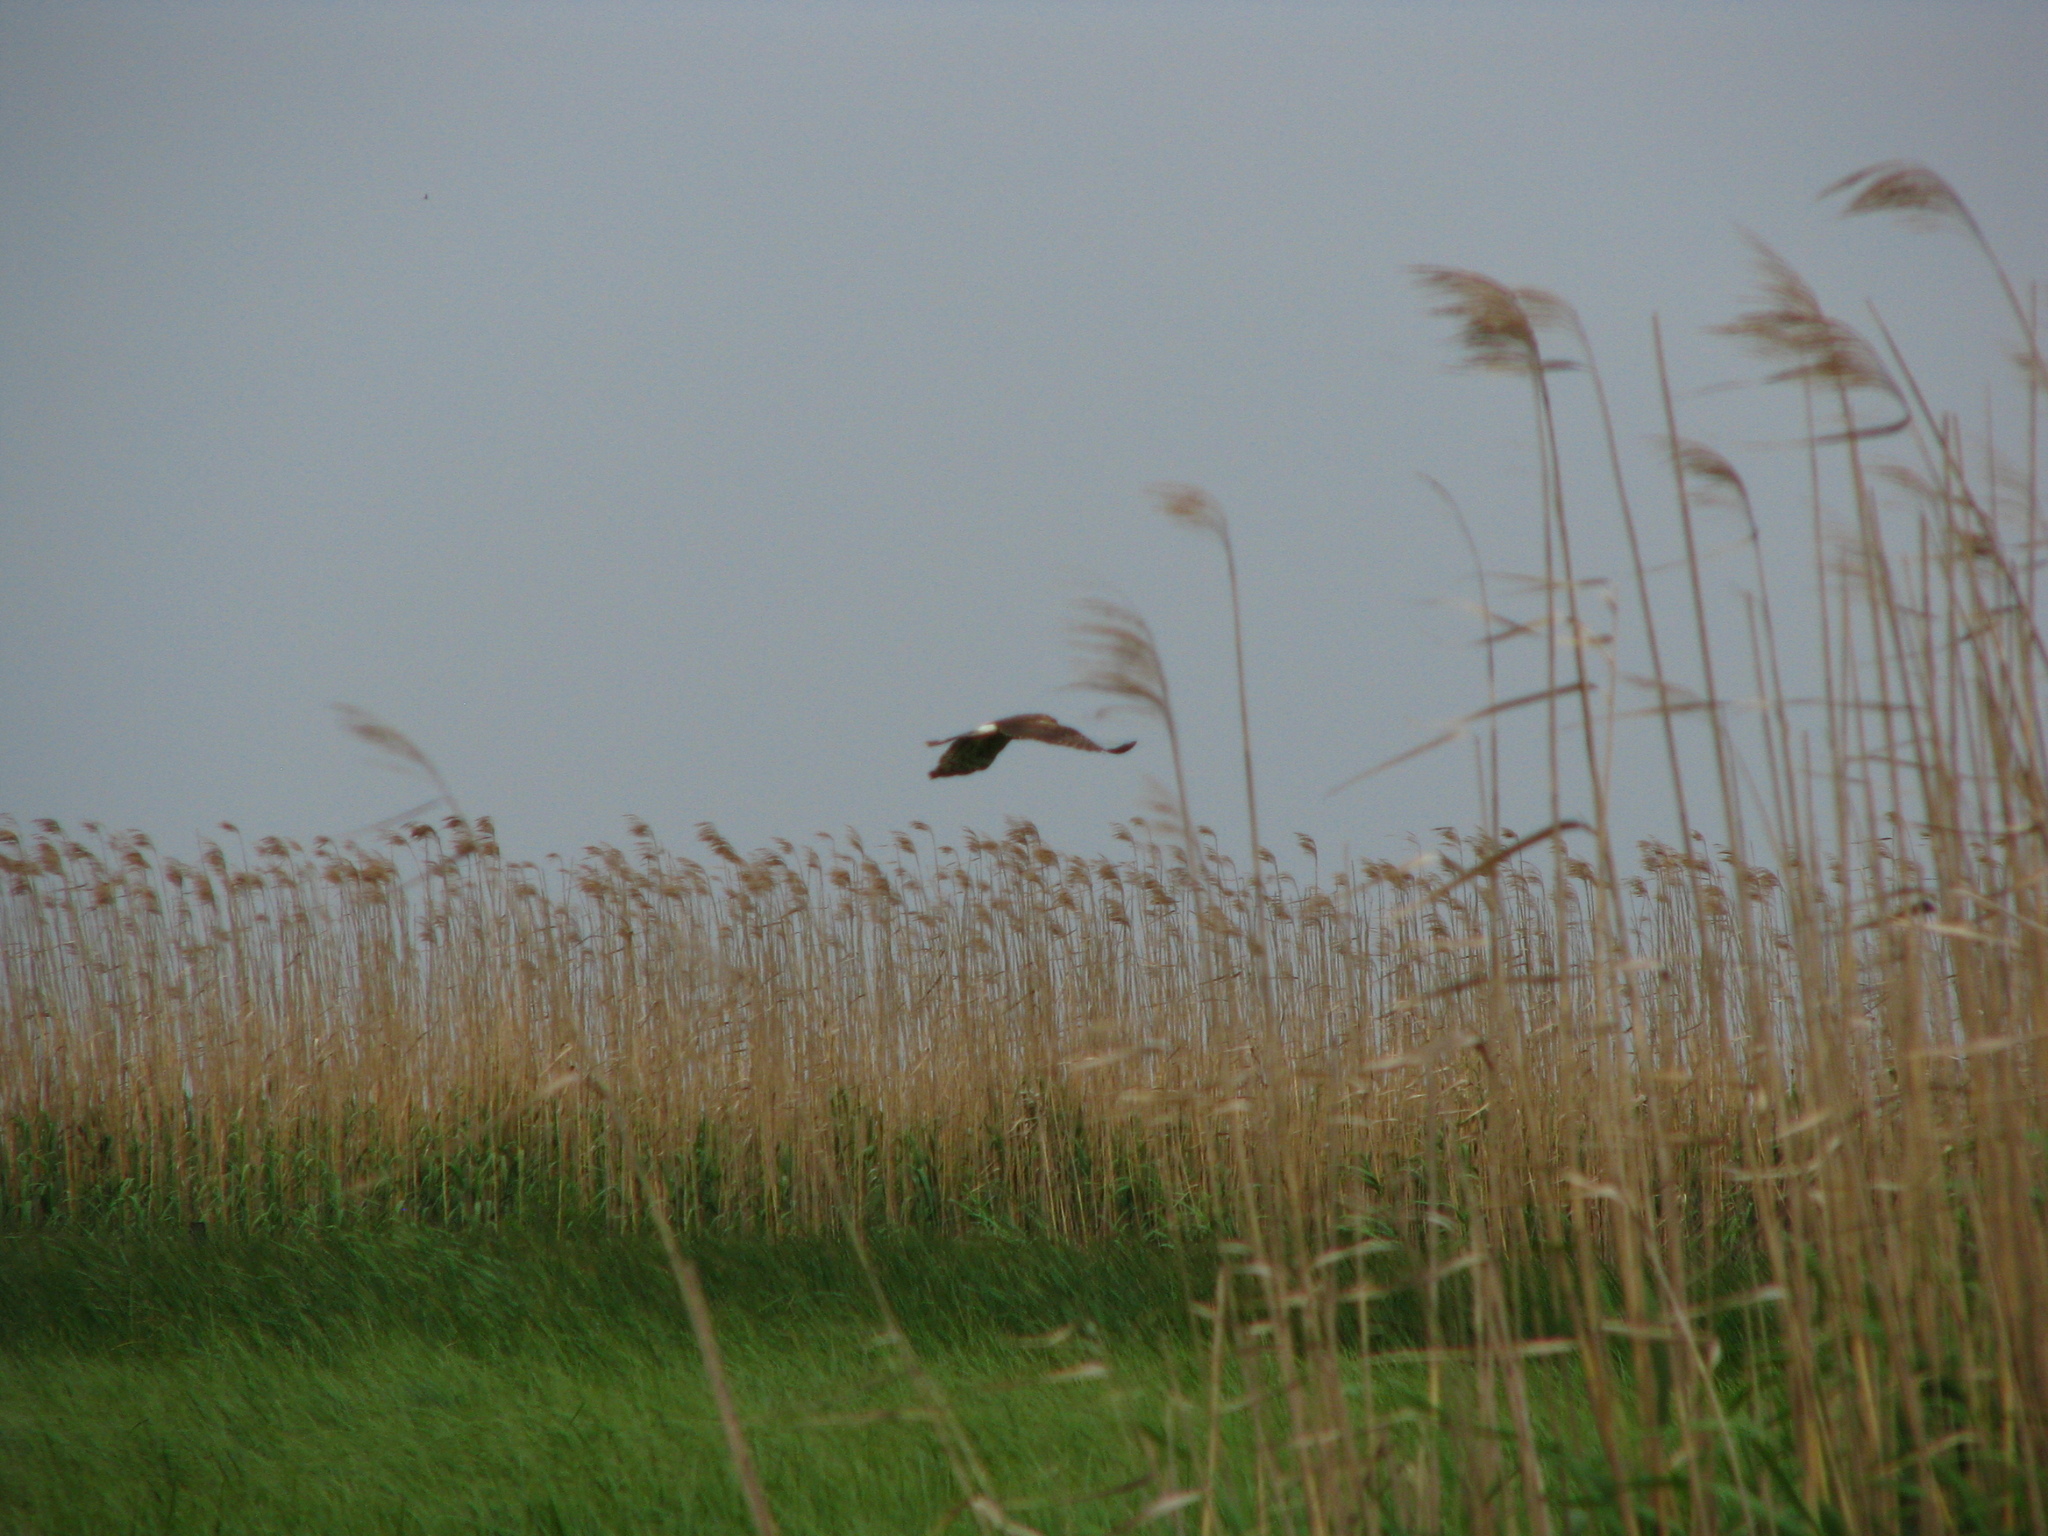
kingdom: Animalia
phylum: Chordata
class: Aves
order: Accipitriformes
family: Accipitridae
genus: Circus
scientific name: Circus cyaneus
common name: Hen harrier
